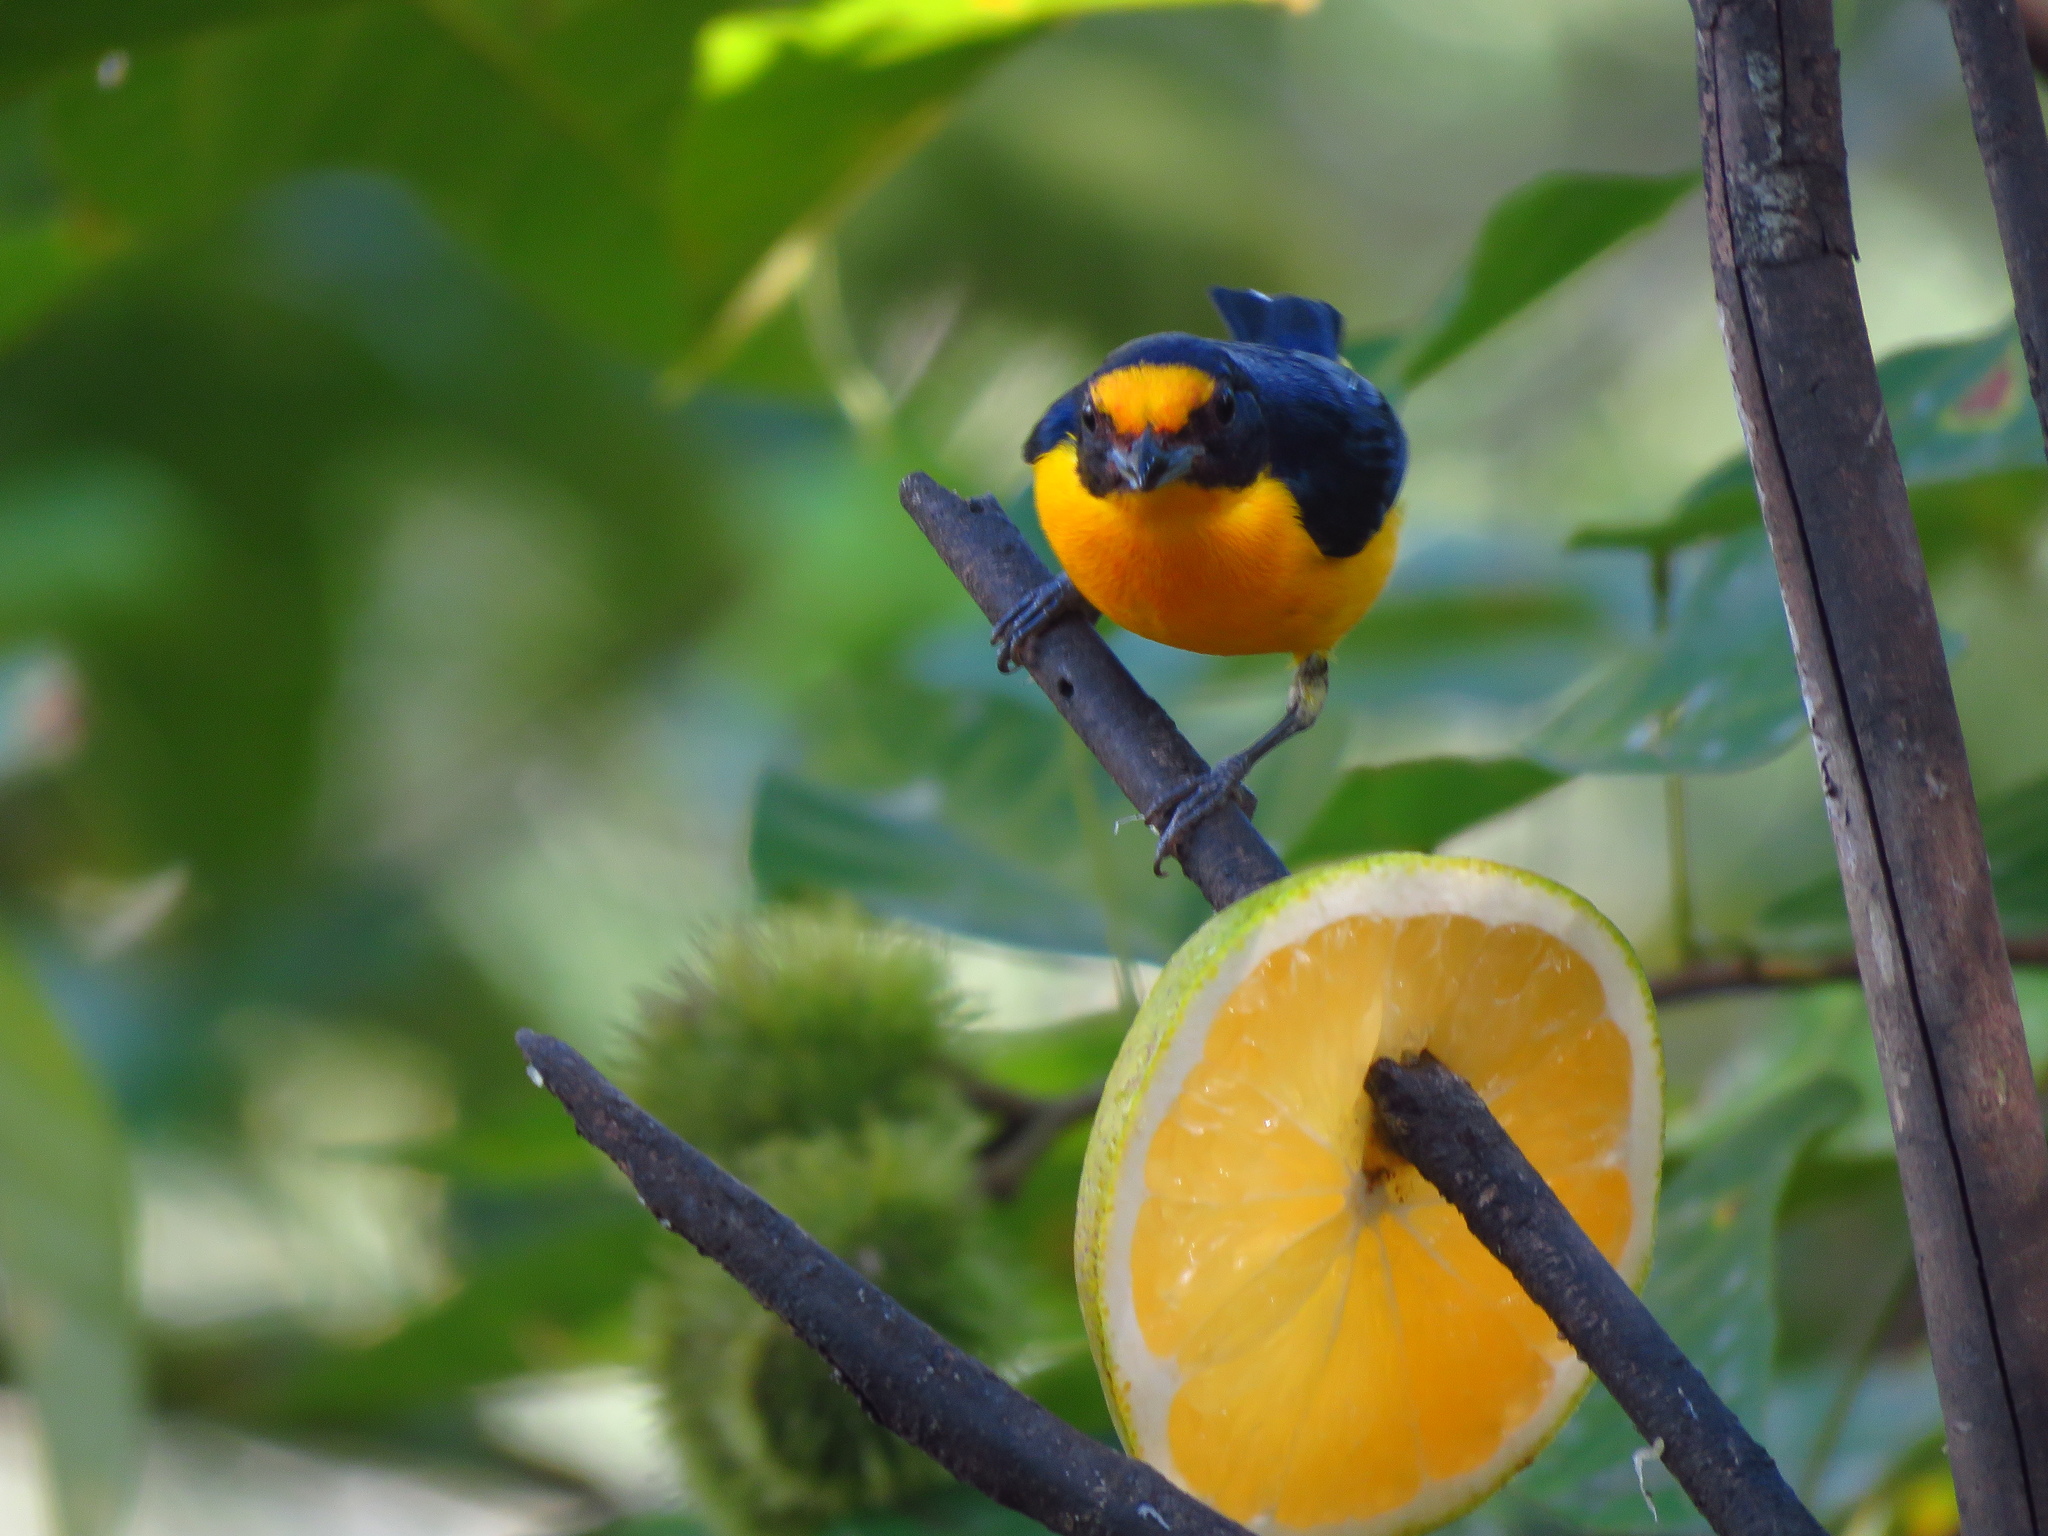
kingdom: Animalia
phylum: Chordata
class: Aves
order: Passeriformes
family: Fringillidae
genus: Euphonia
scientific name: Euphonia hirundinacea
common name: Yellow-throated euphonia
